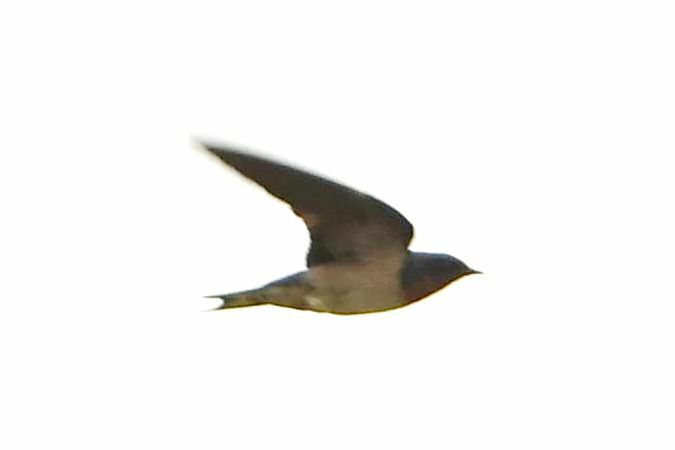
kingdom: Animalia
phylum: Chordata
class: Aves
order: Passeriformes
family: Hirundinidae
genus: Hirundo
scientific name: Hirundo lucida
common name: Red-chested swallow
